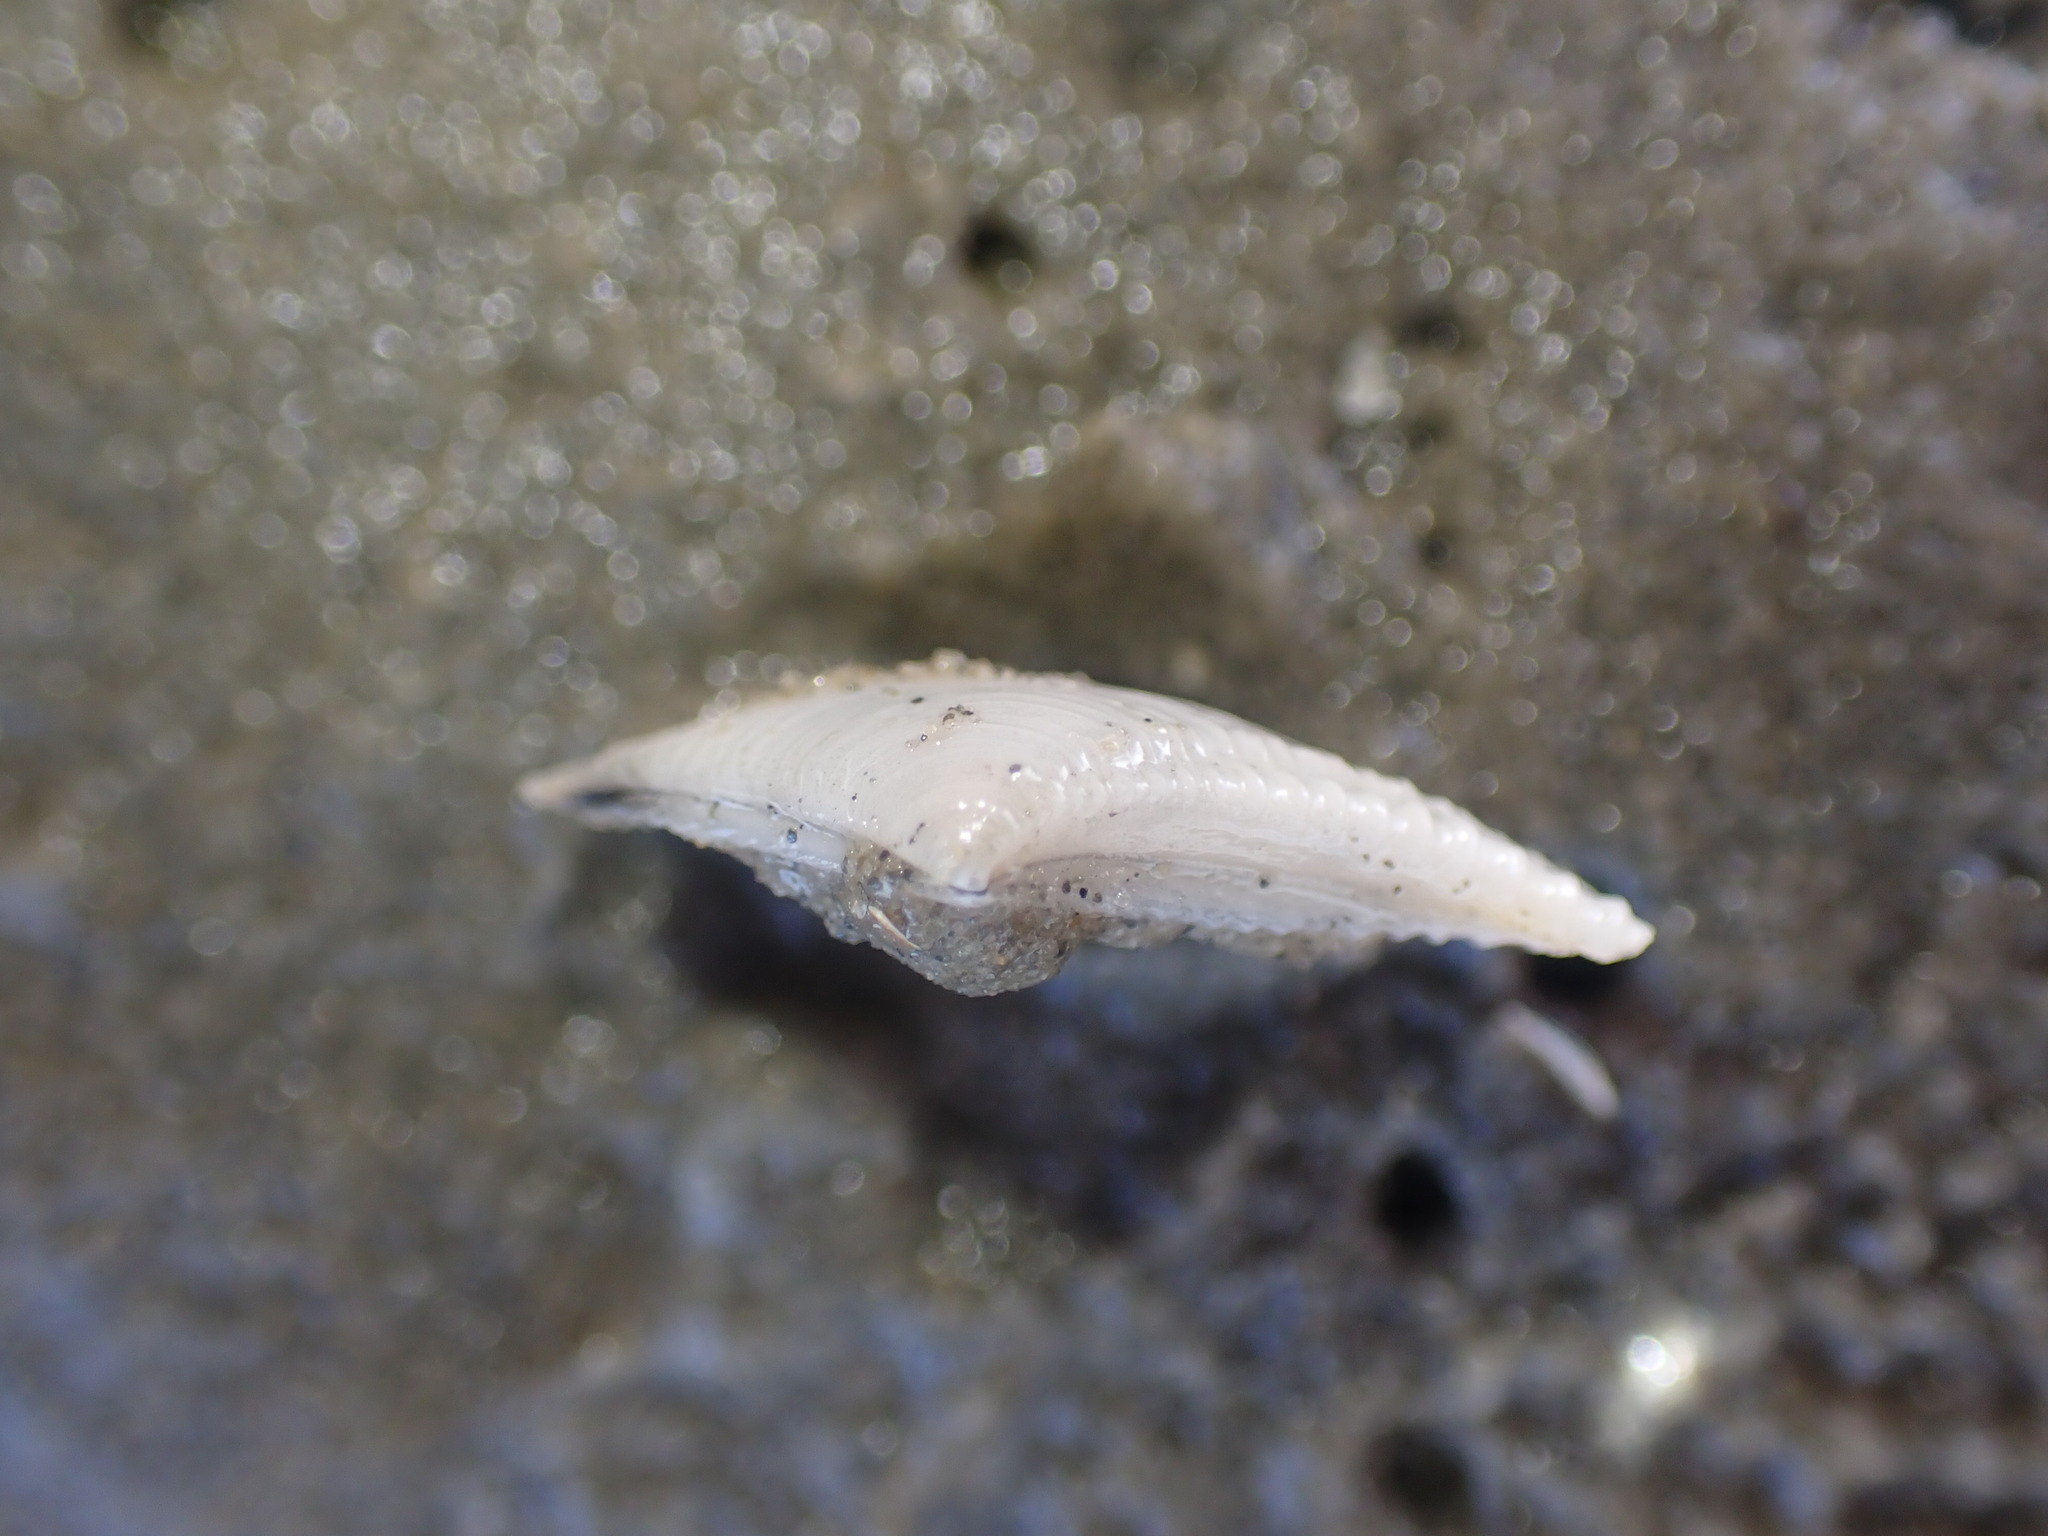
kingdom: Animalia
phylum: Mollusca
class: Bivalvia
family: Myochamidae
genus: Myadora
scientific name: Myadora striata
